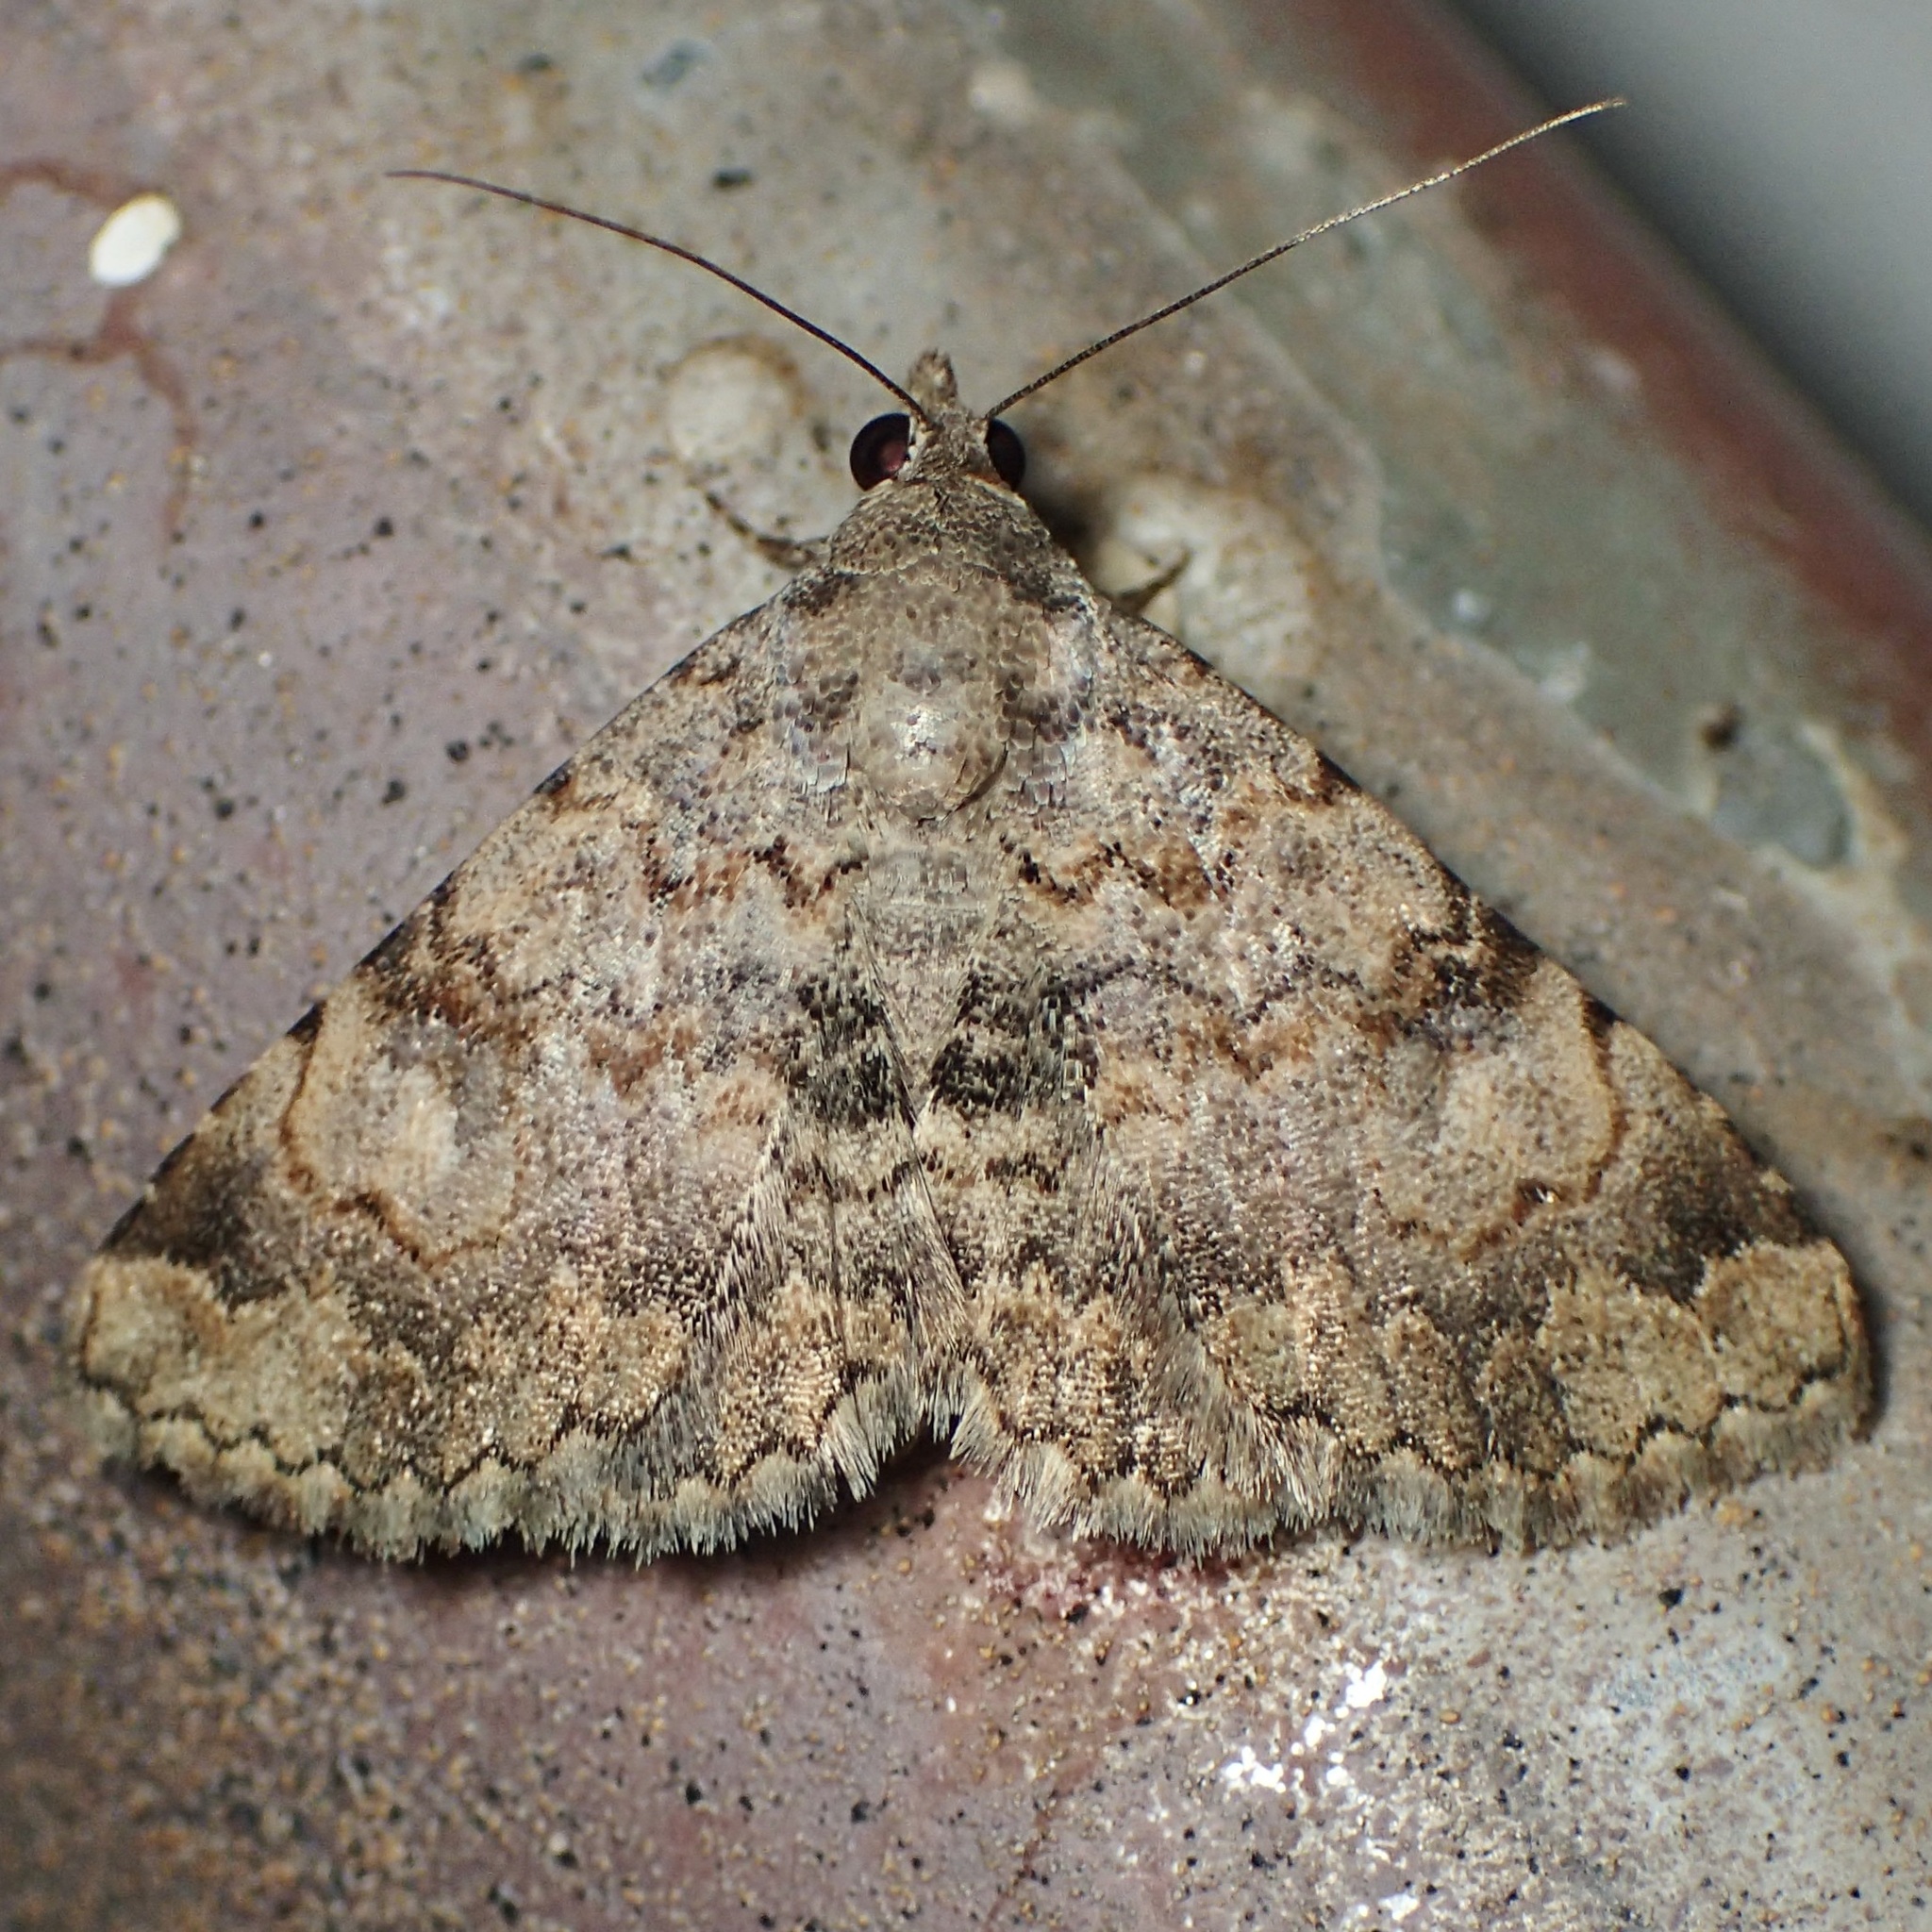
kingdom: Animalia
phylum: Arthropoda
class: Insecta
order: Lepidoptera
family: Erebidae
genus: Toxonprucha
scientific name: Toxonprucha volucris
